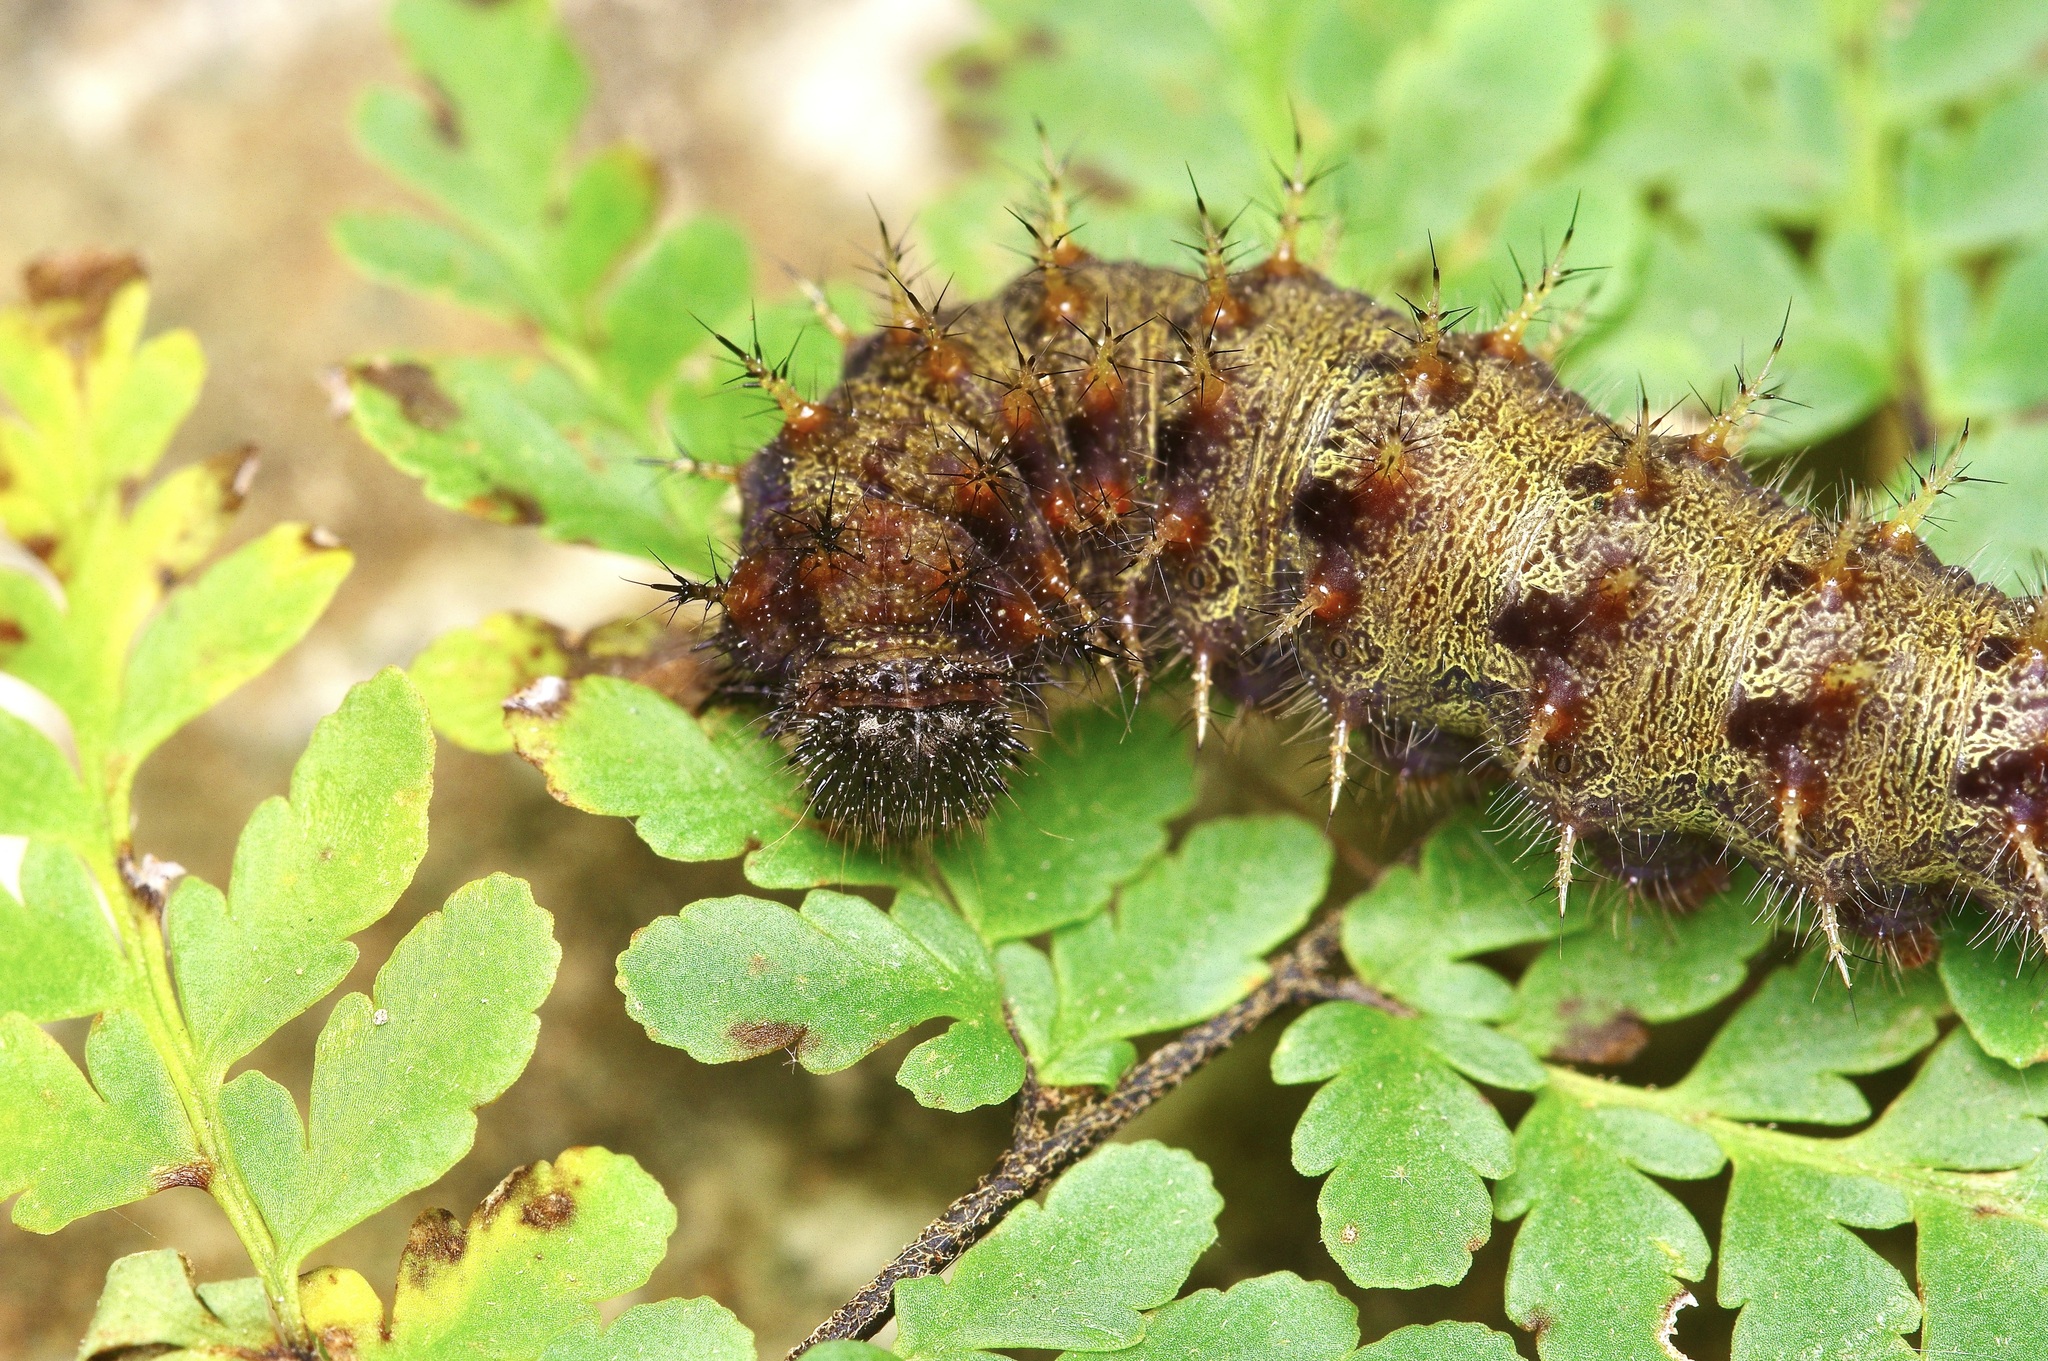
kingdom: Animalia
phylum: Arthropoda
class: Insecta
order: Lepidoptera
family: Nymphalidae
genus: Vanessa
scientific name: Vanessa atalanta
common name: Red admiral
